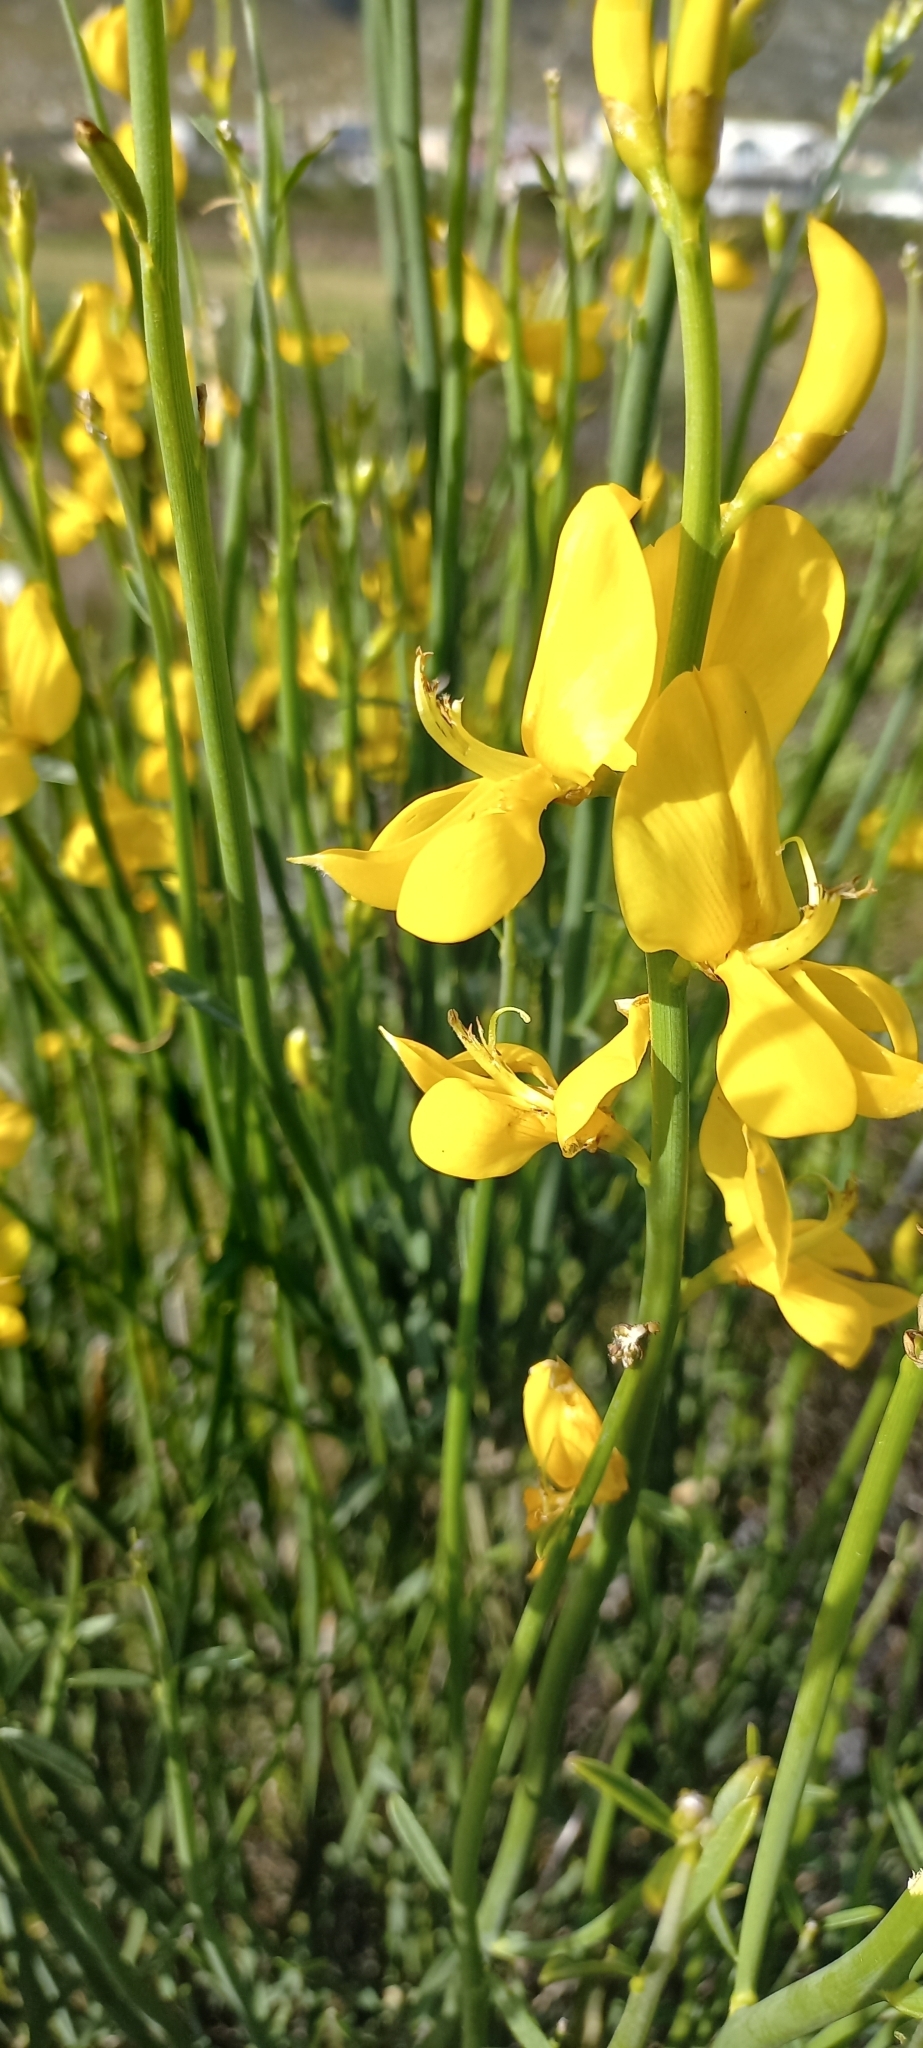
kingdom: Plantae
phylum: Tracheophyta
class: Magnoliopsida
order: Fabales
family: Fabaceae
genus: Spartium
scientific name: Spartium junceum
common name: Spanish broom
